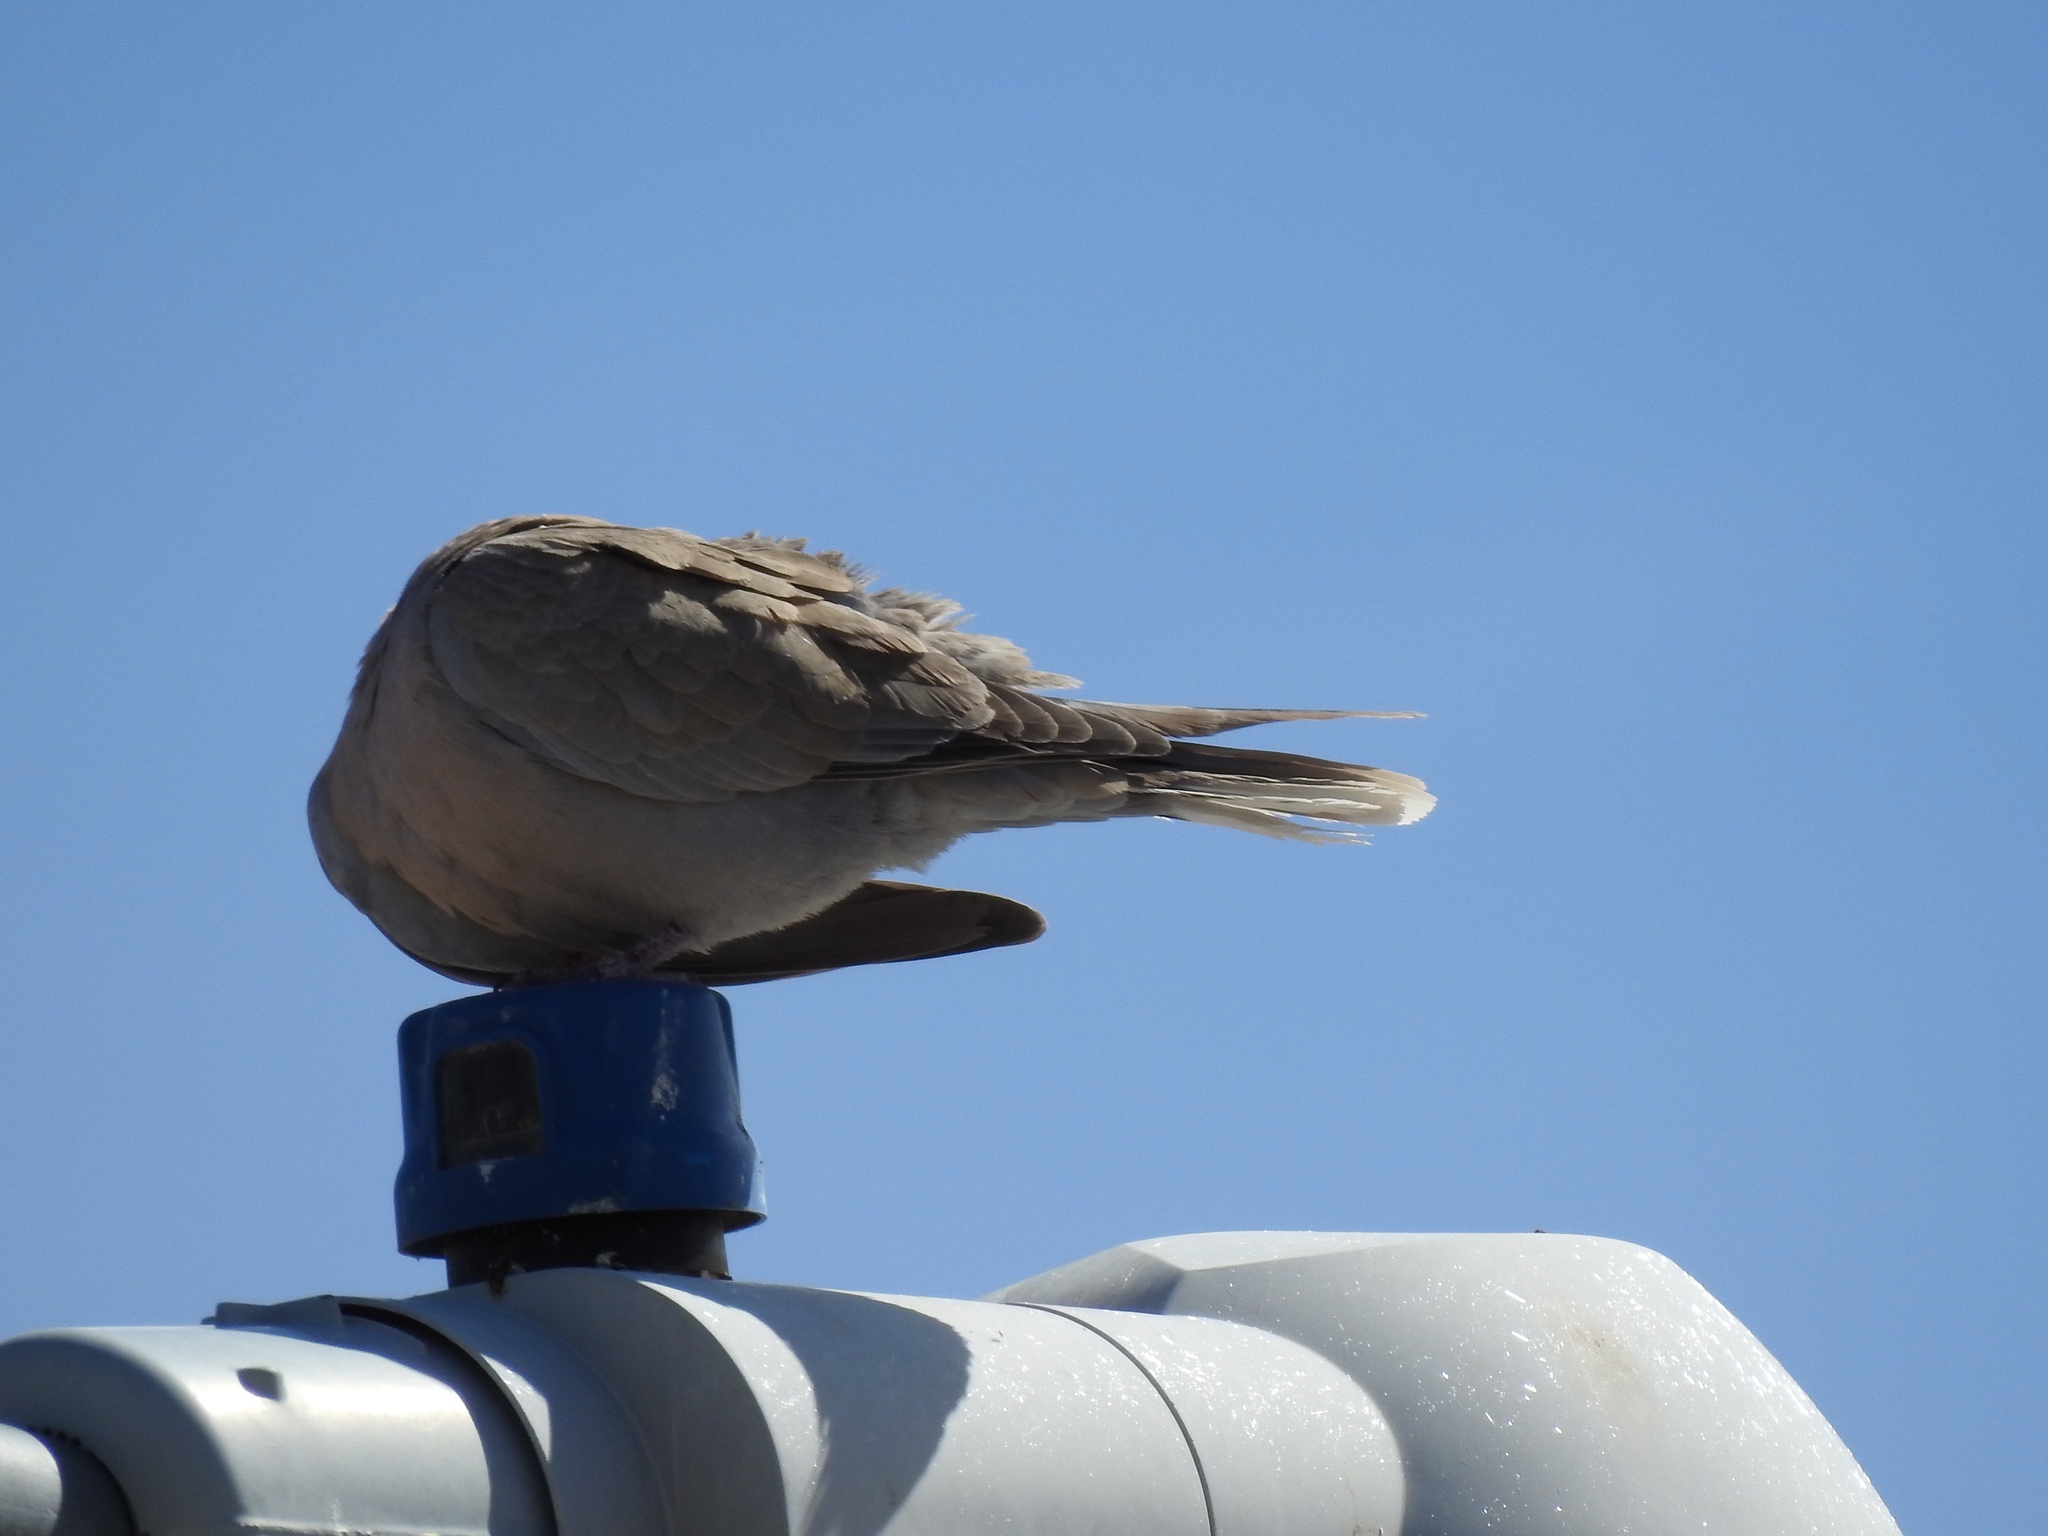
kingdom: Animalia
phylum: Chordata
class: Aves
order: Columbiformes
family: Columbidae
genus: Streptopelia
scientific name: Streptopelia decaocto
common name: Eurasian collared dove
